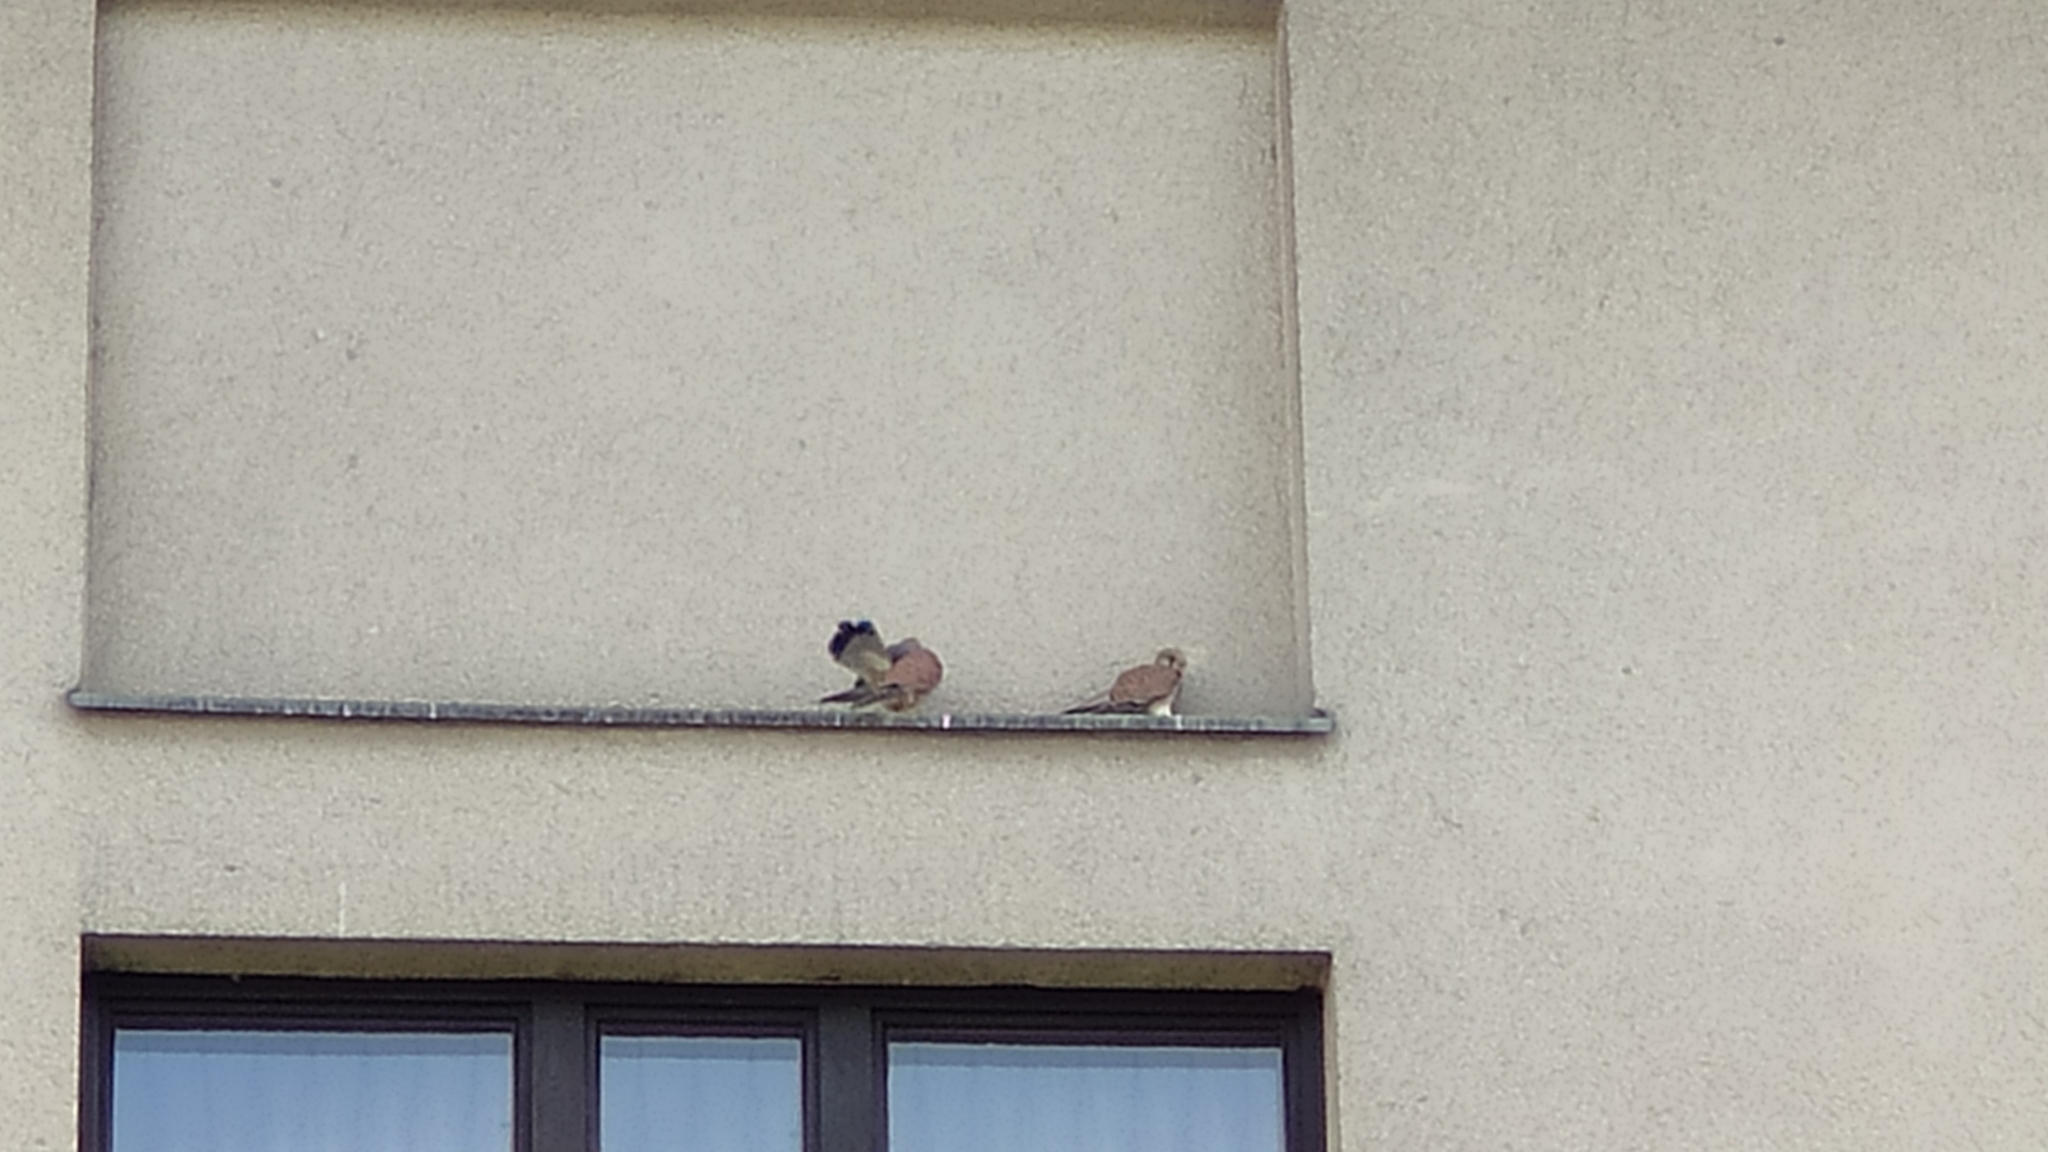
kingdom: Animalia
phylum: Chordata
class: Aves
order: Falconiformes
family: Falconidae
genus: Falco
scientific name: Falco tinnunculus
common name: Common kestrel
